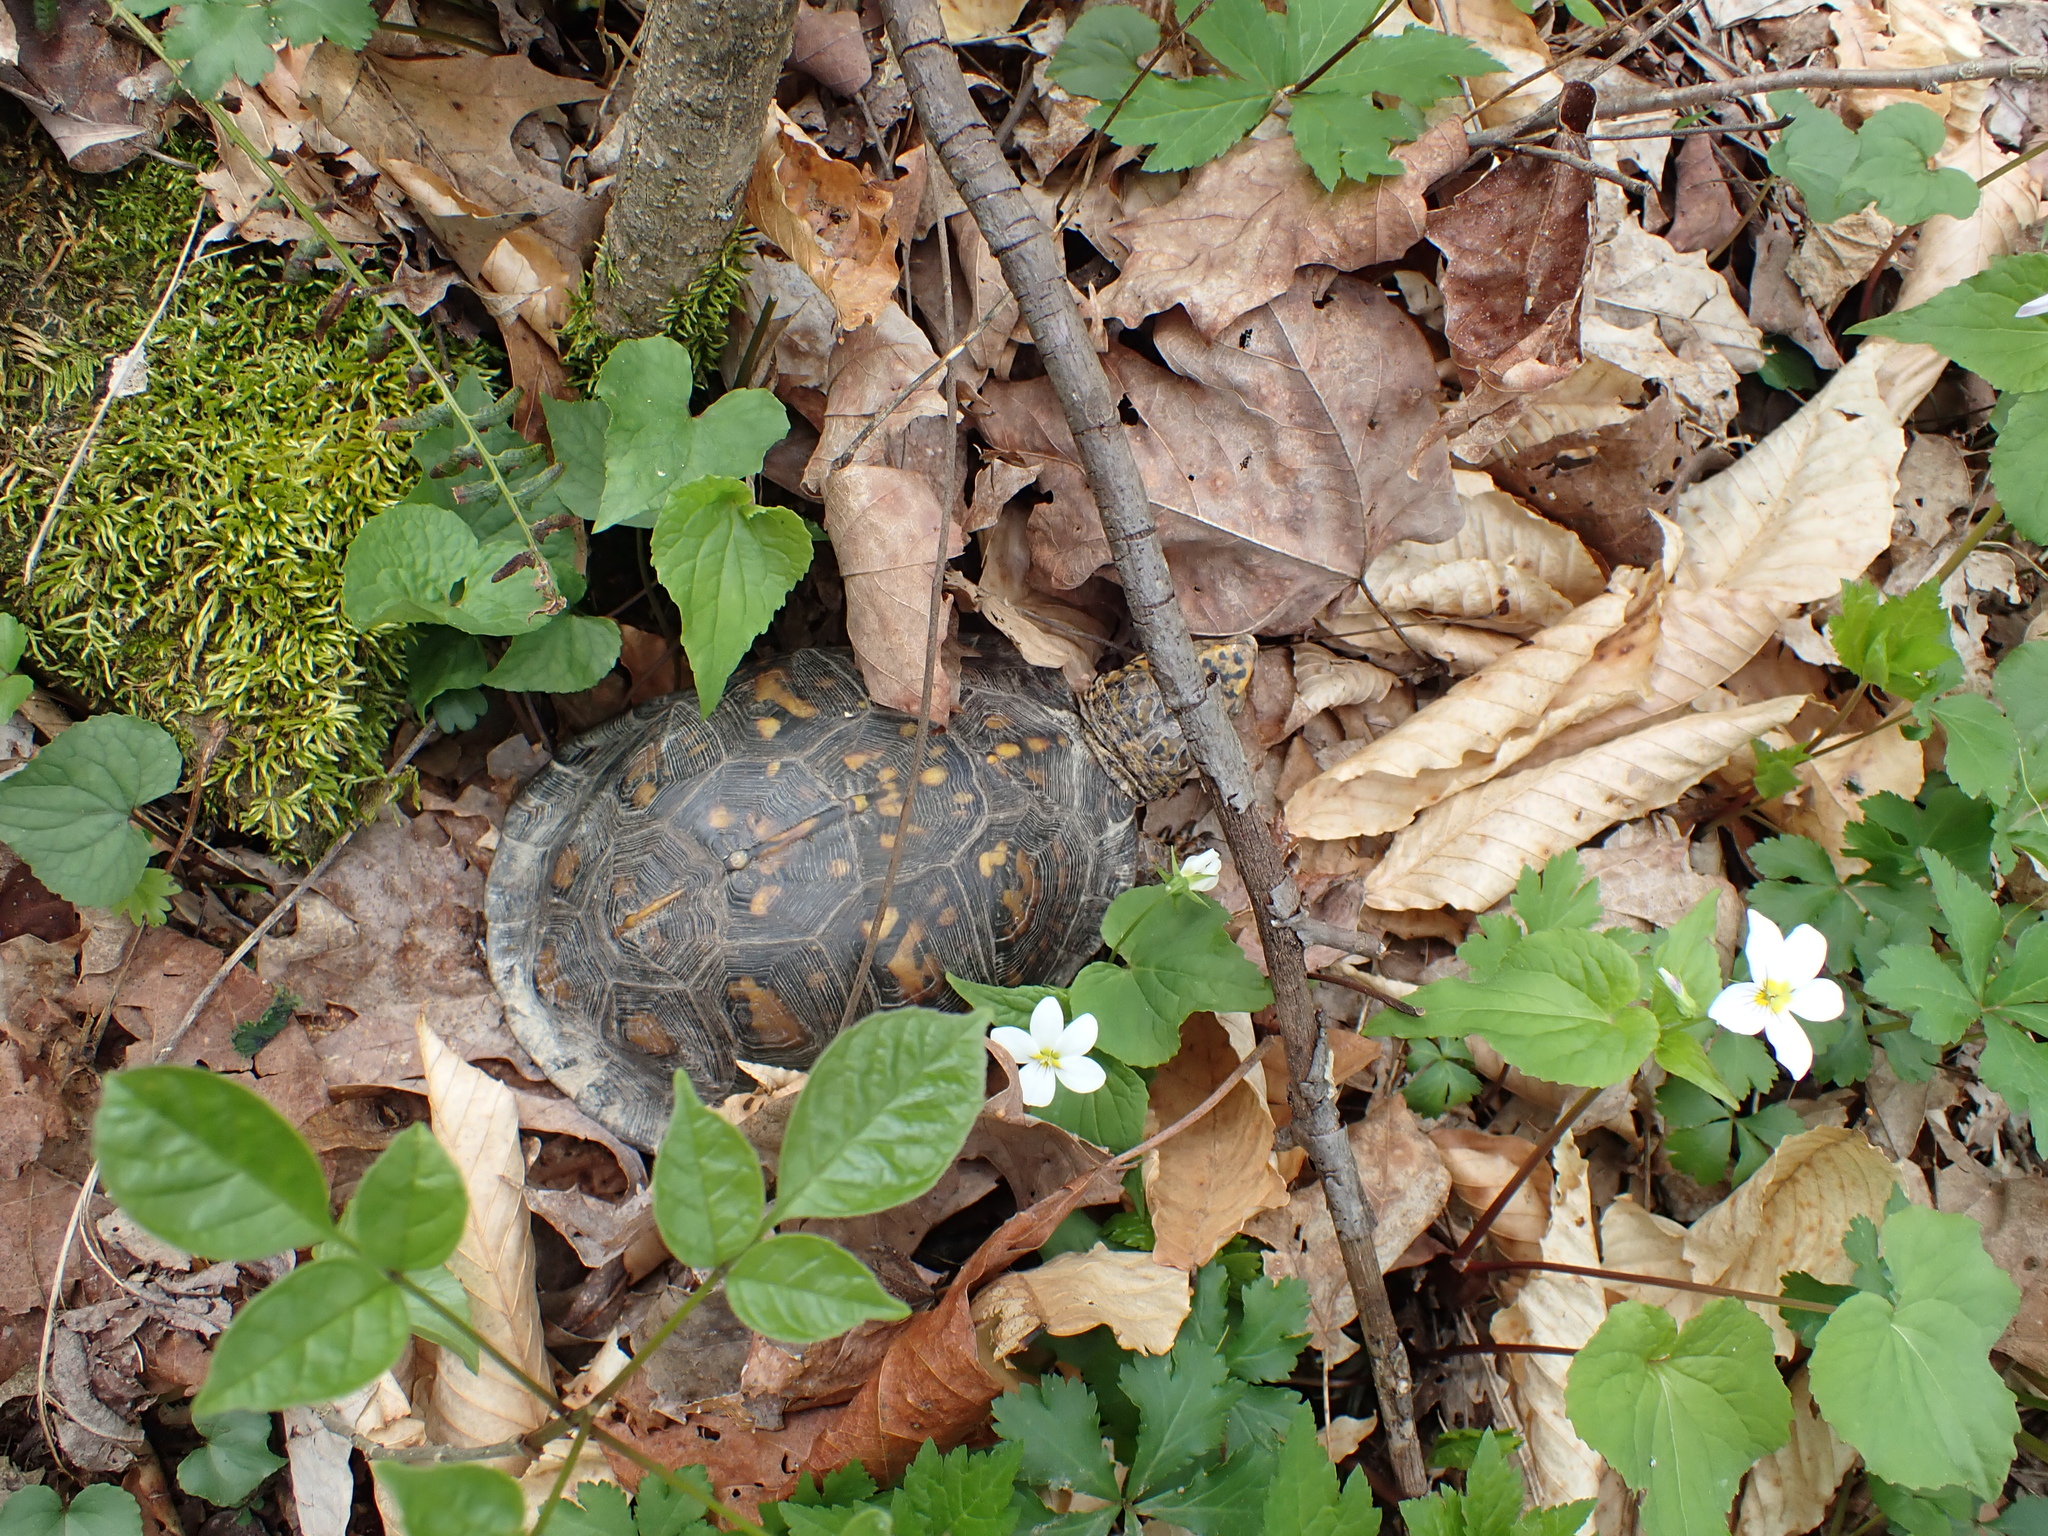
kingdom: Animalia
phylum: Chordata
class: Testudines
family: Emydidae
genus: Terrapene
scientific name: Terrapene carolina
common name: Common box turtle
